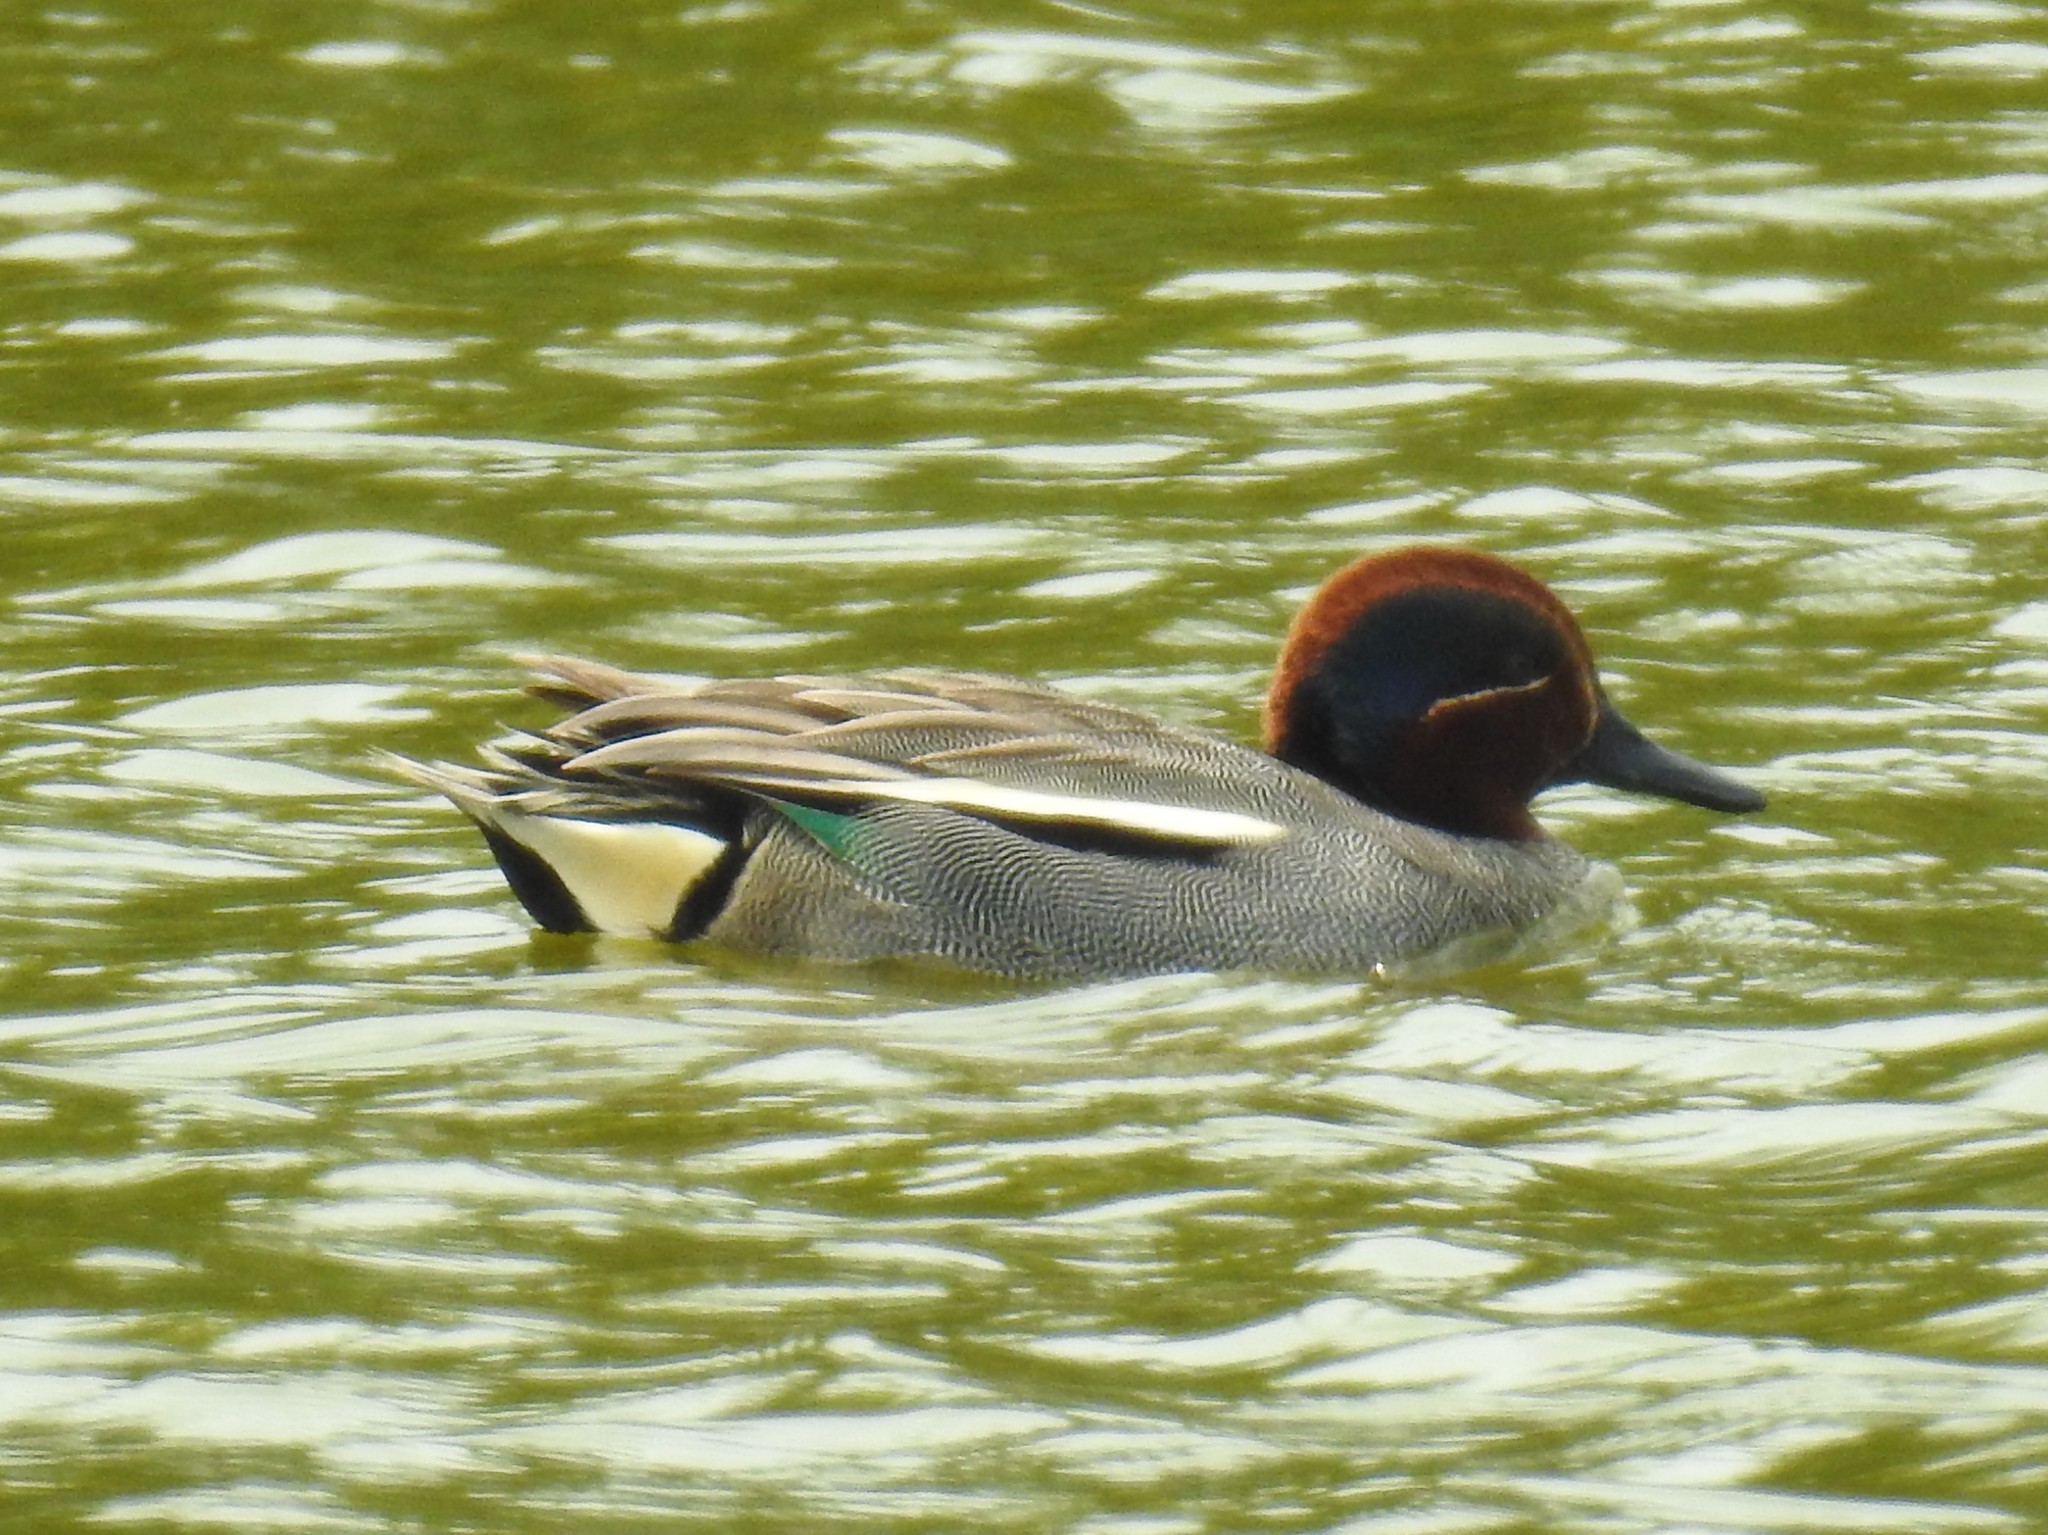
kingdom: Animalia
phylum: Chordata
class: Aves
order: Anseriformes
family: Anatidae
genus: Anas
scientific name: Anas crecca
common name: Eurasian teal
